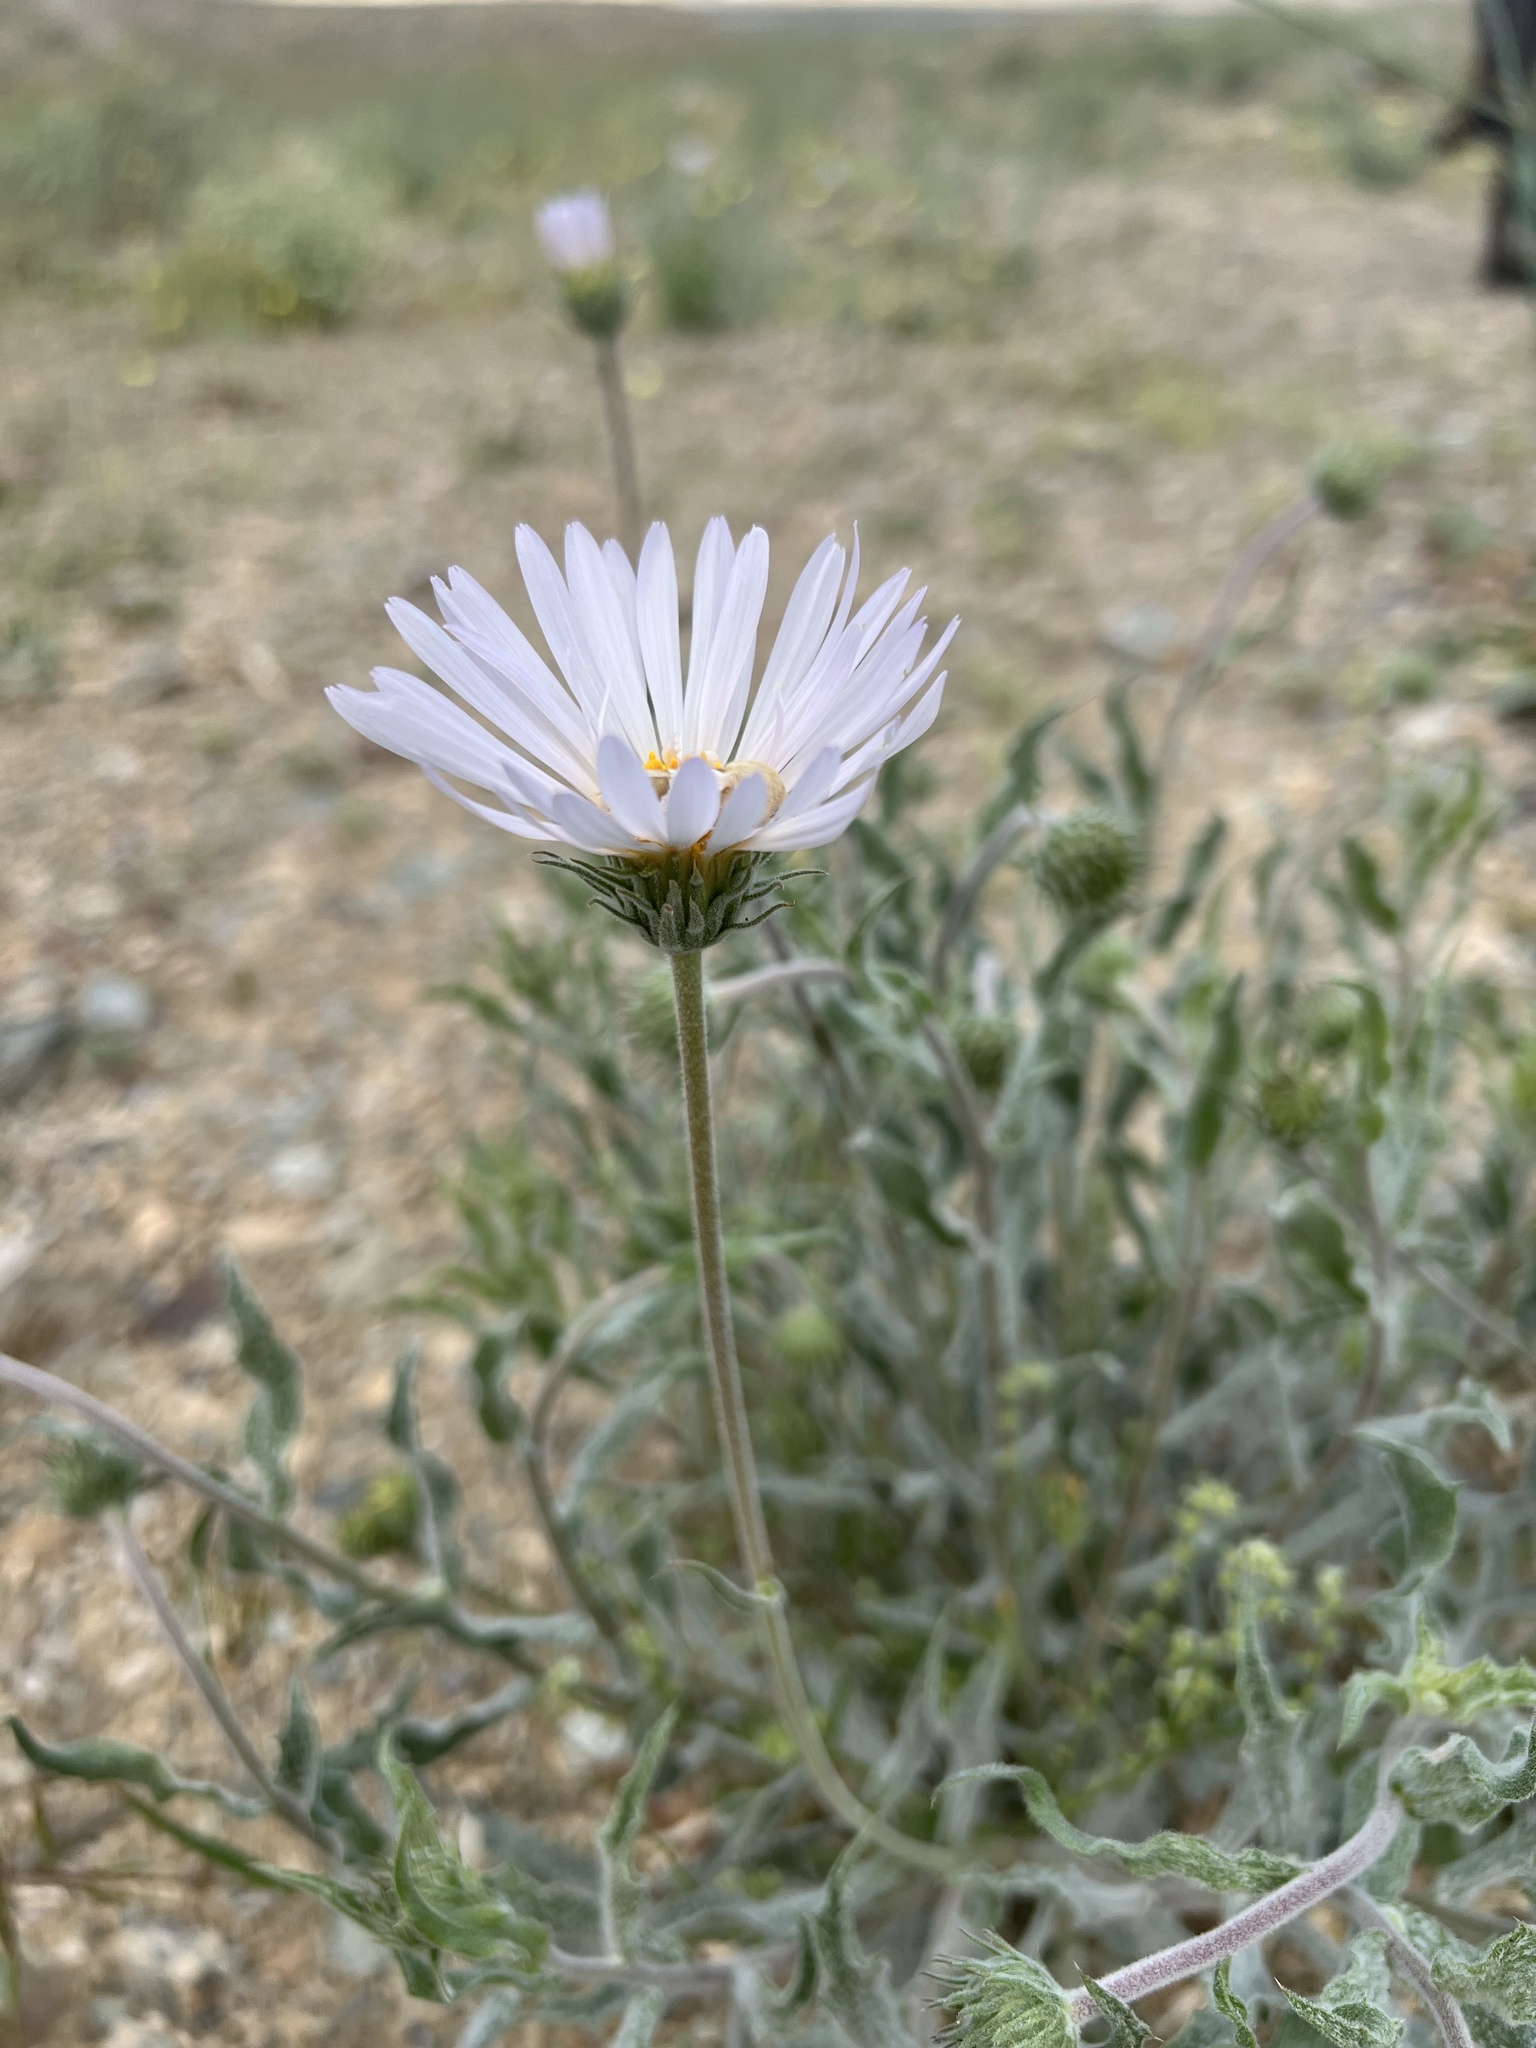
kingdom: Plantae
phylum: Tracheophyta
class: Magnoliopsida
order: Asterales
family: Asteraceae
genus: Xylorhiza
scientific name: Xylorhiza tortifolia
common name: Hurt-leaf woody-aster
